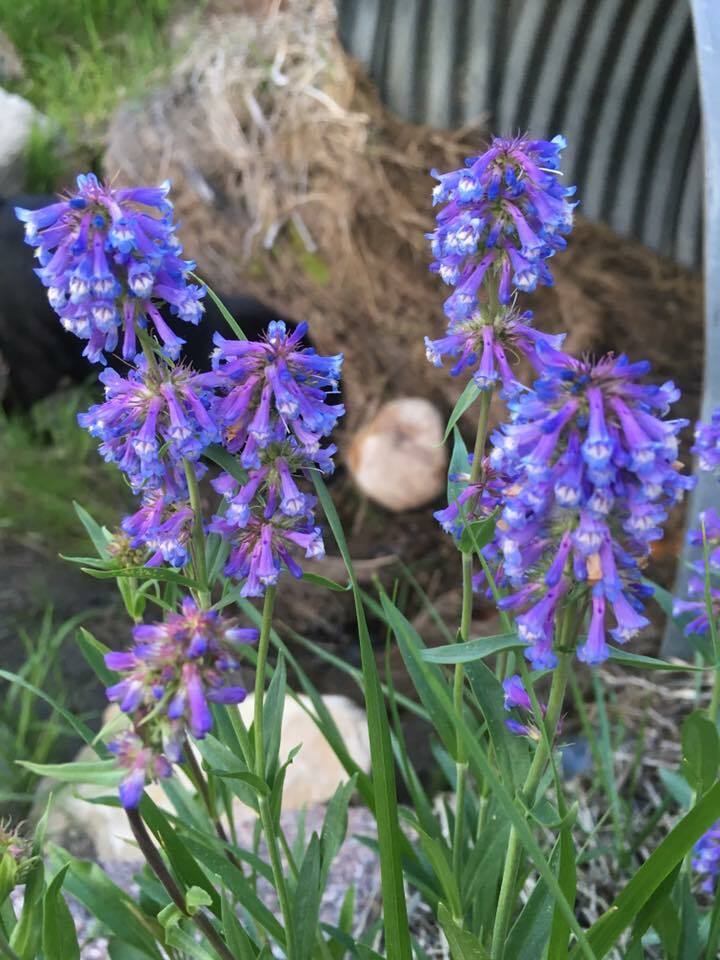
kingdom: Plantae
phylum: Tracheophyta
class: Magnoliopsida
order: Lamiales
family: Plantaginaceae
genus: Penstemon
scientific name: Penstemon procerus
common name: Small-flower penstemon
